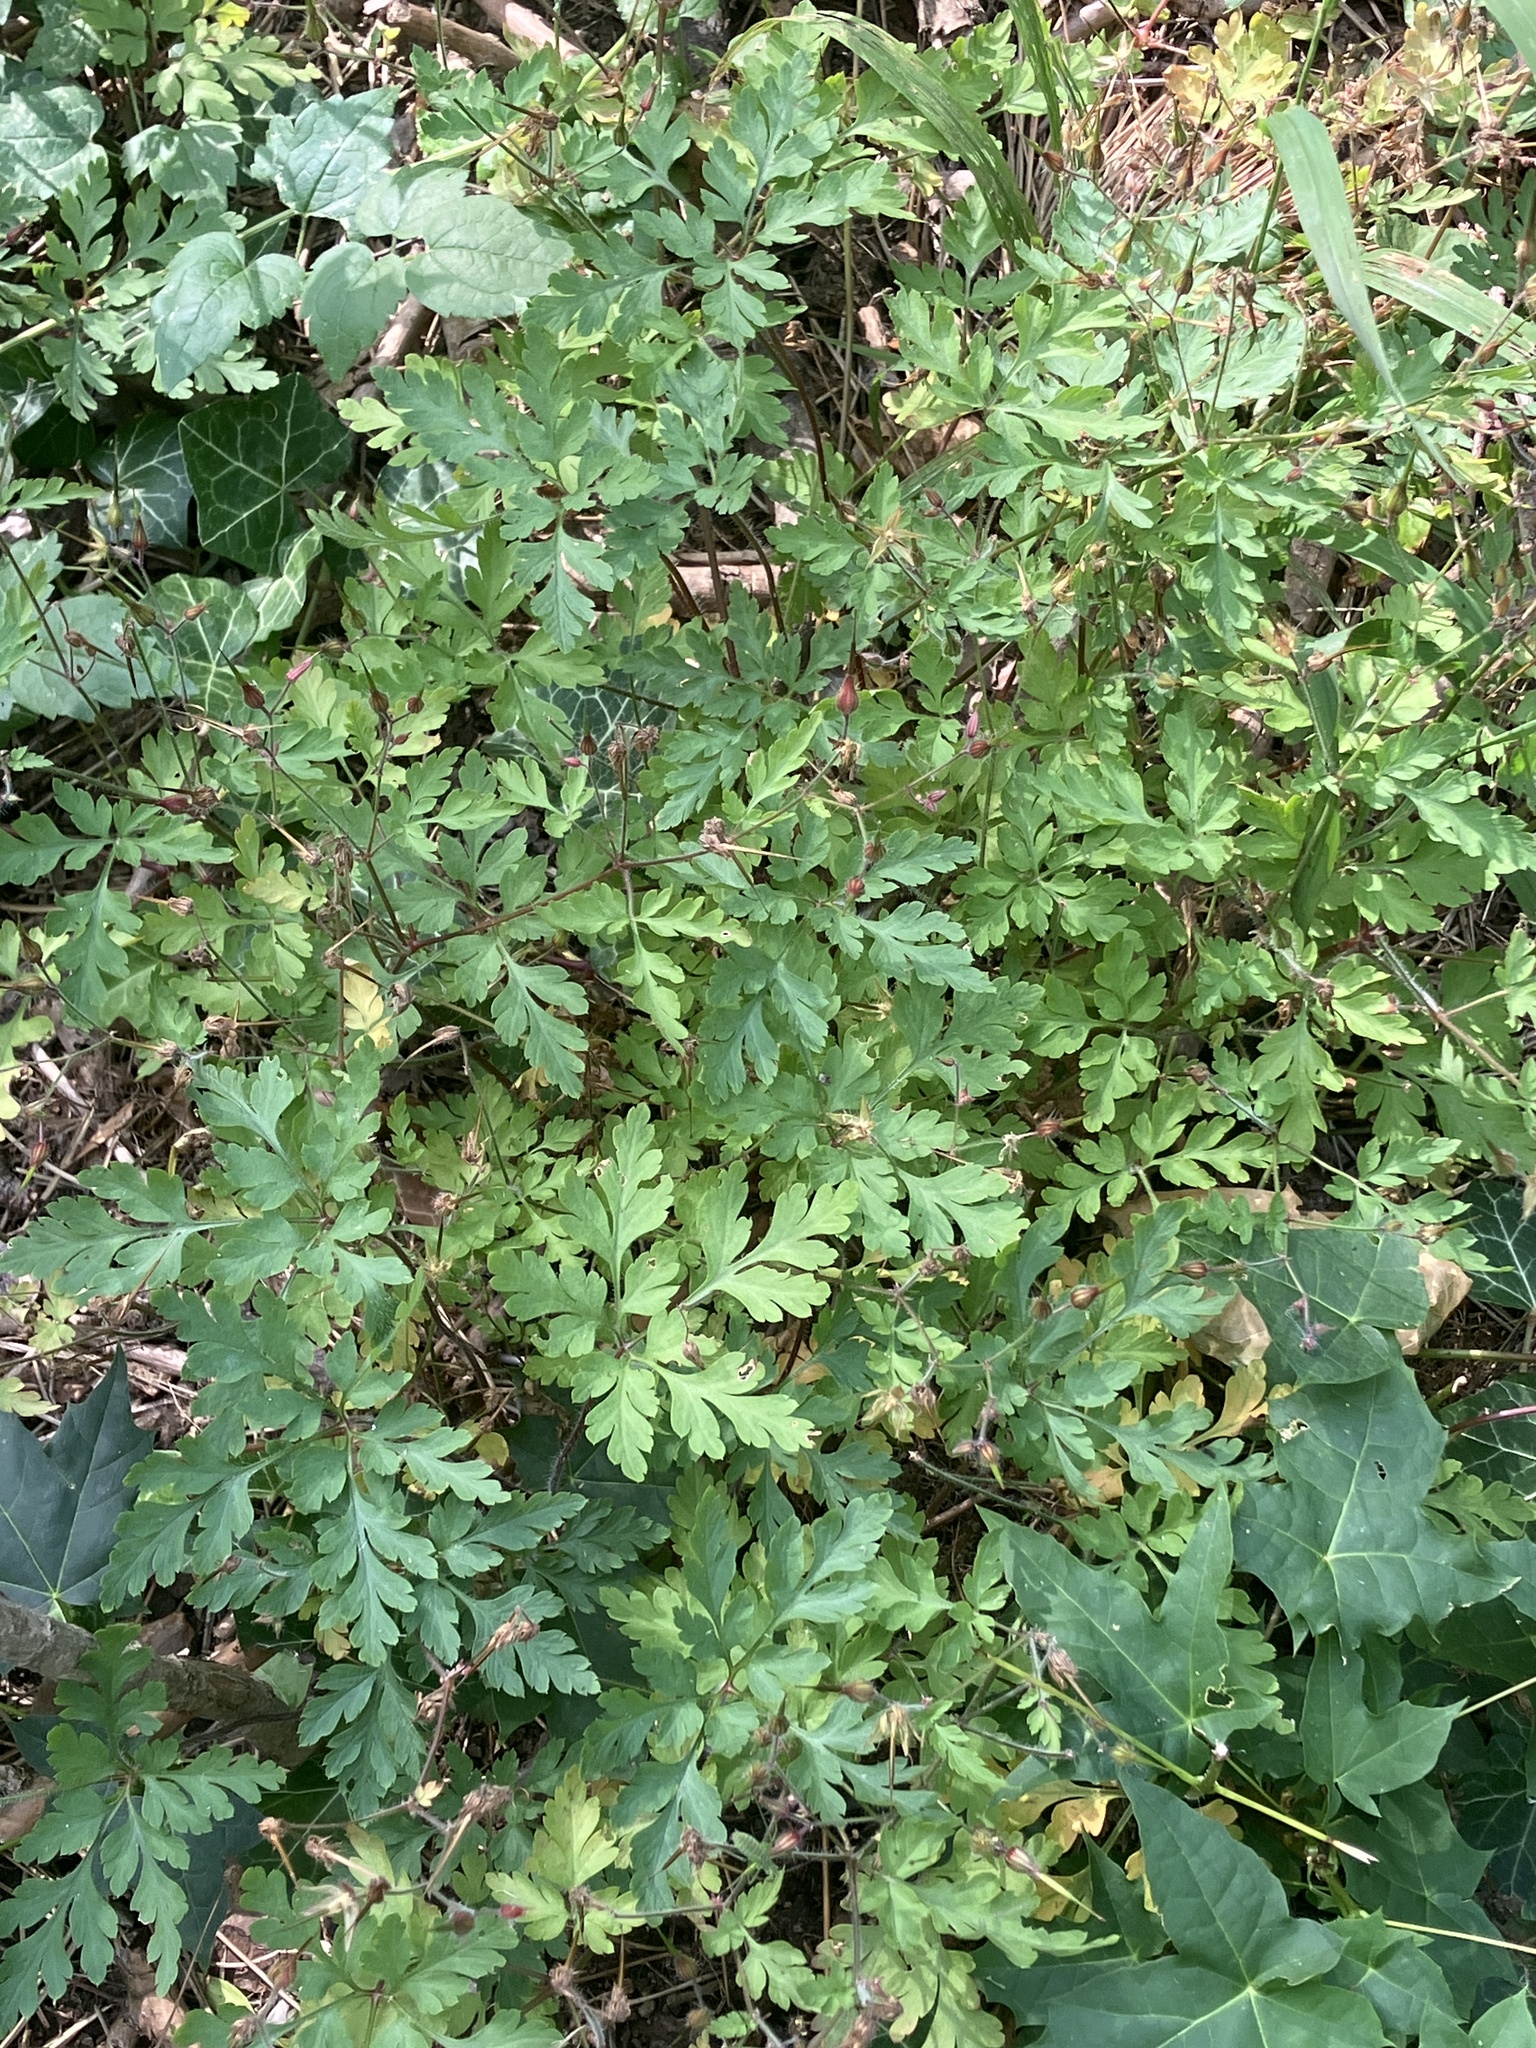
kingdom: Plantae
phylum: Tracheophyta
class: Magnoliopsida
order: Geraniales
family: Geraniaceae
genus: Geranium
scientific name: Geranium robertianum
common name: Herb-robert
